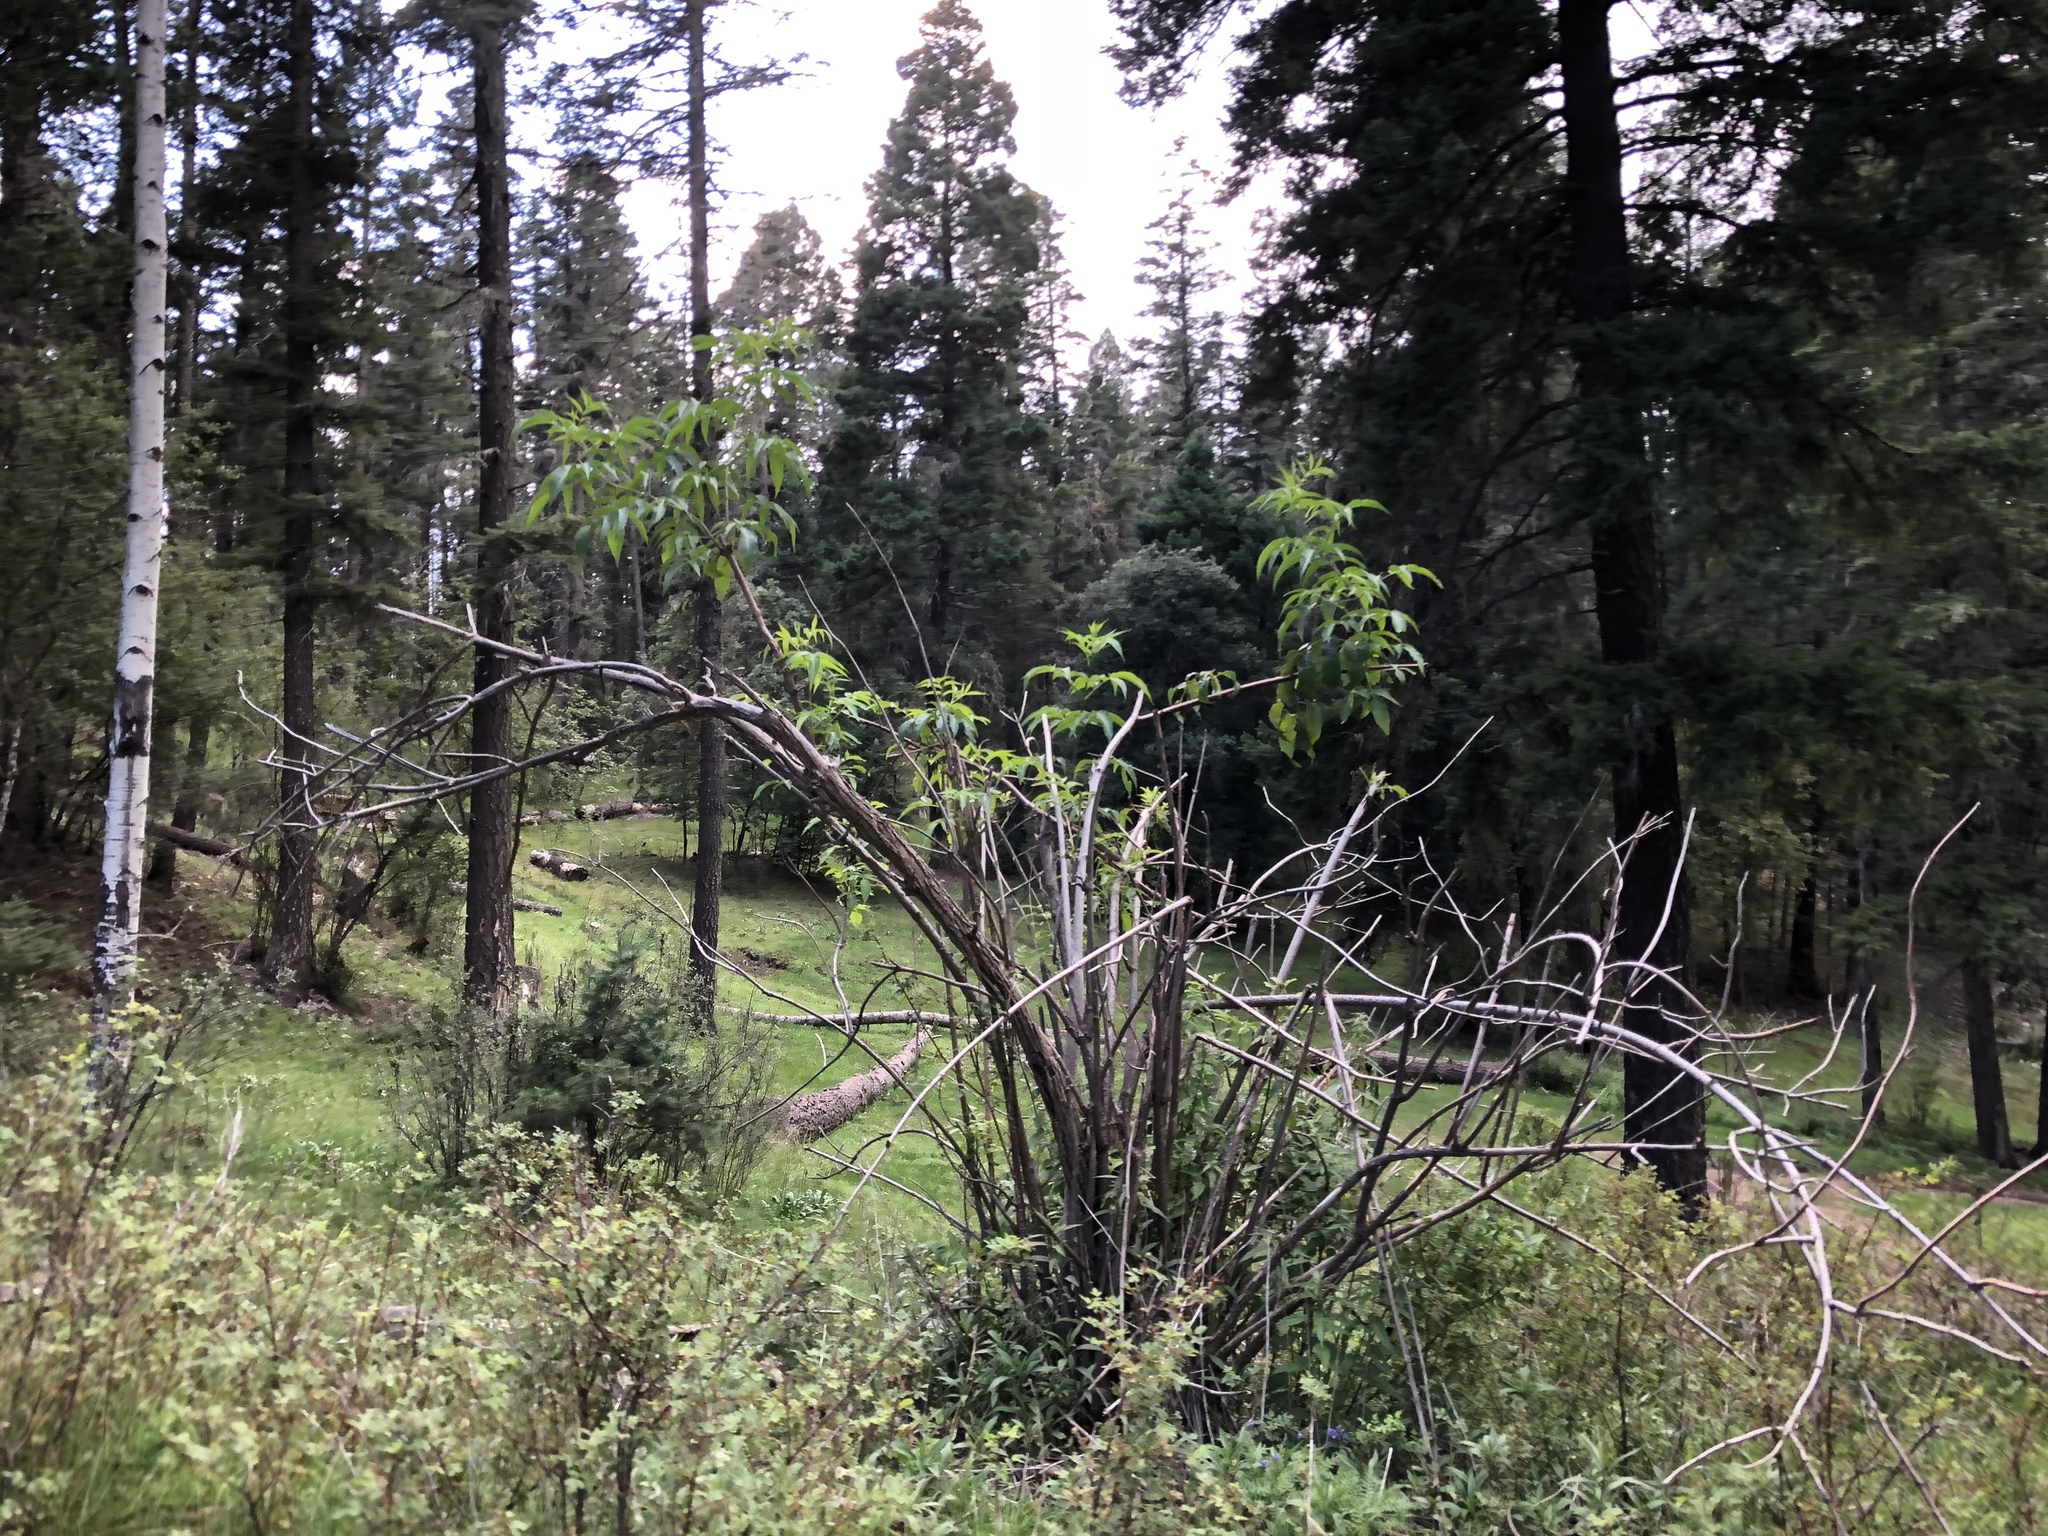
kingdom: Plantae
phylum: Tracheophyta
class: Magnoliopsida
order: Dipsacales
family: Viburnaceae
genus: Sambucus
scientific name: Sambucus cerulea
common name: Blue elder
